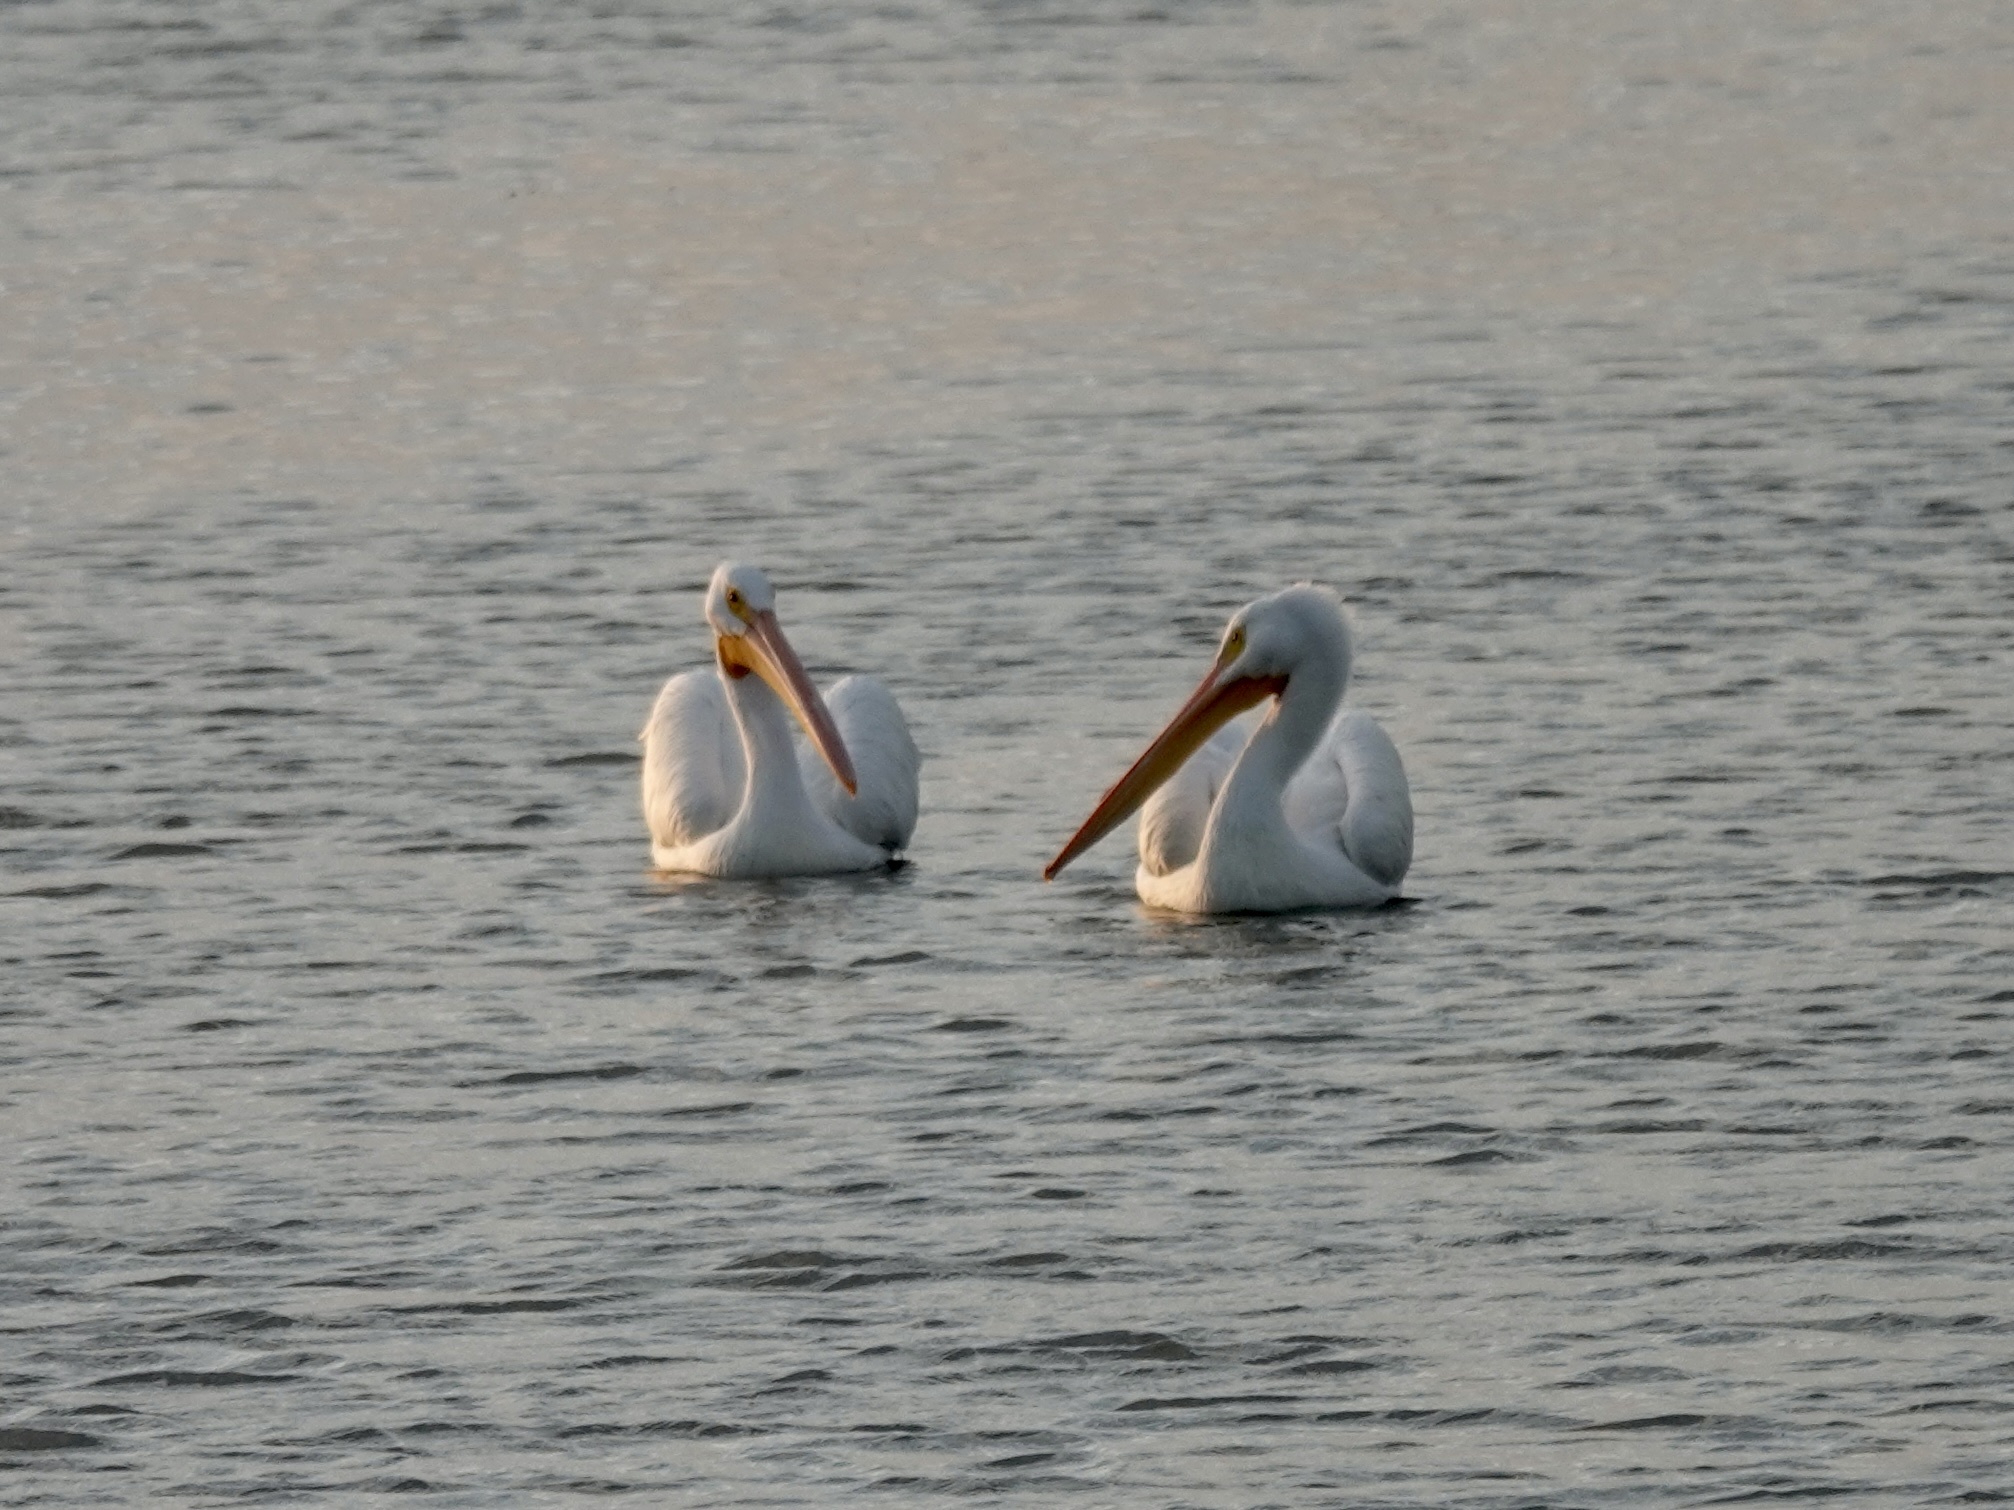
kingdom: Animalia
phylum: Chordata
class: Aves
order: Pelecaniformes
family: Pelecanidae
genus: Pelecanus
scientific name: Pelecanus erythrorhynchos
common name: American white pelican
